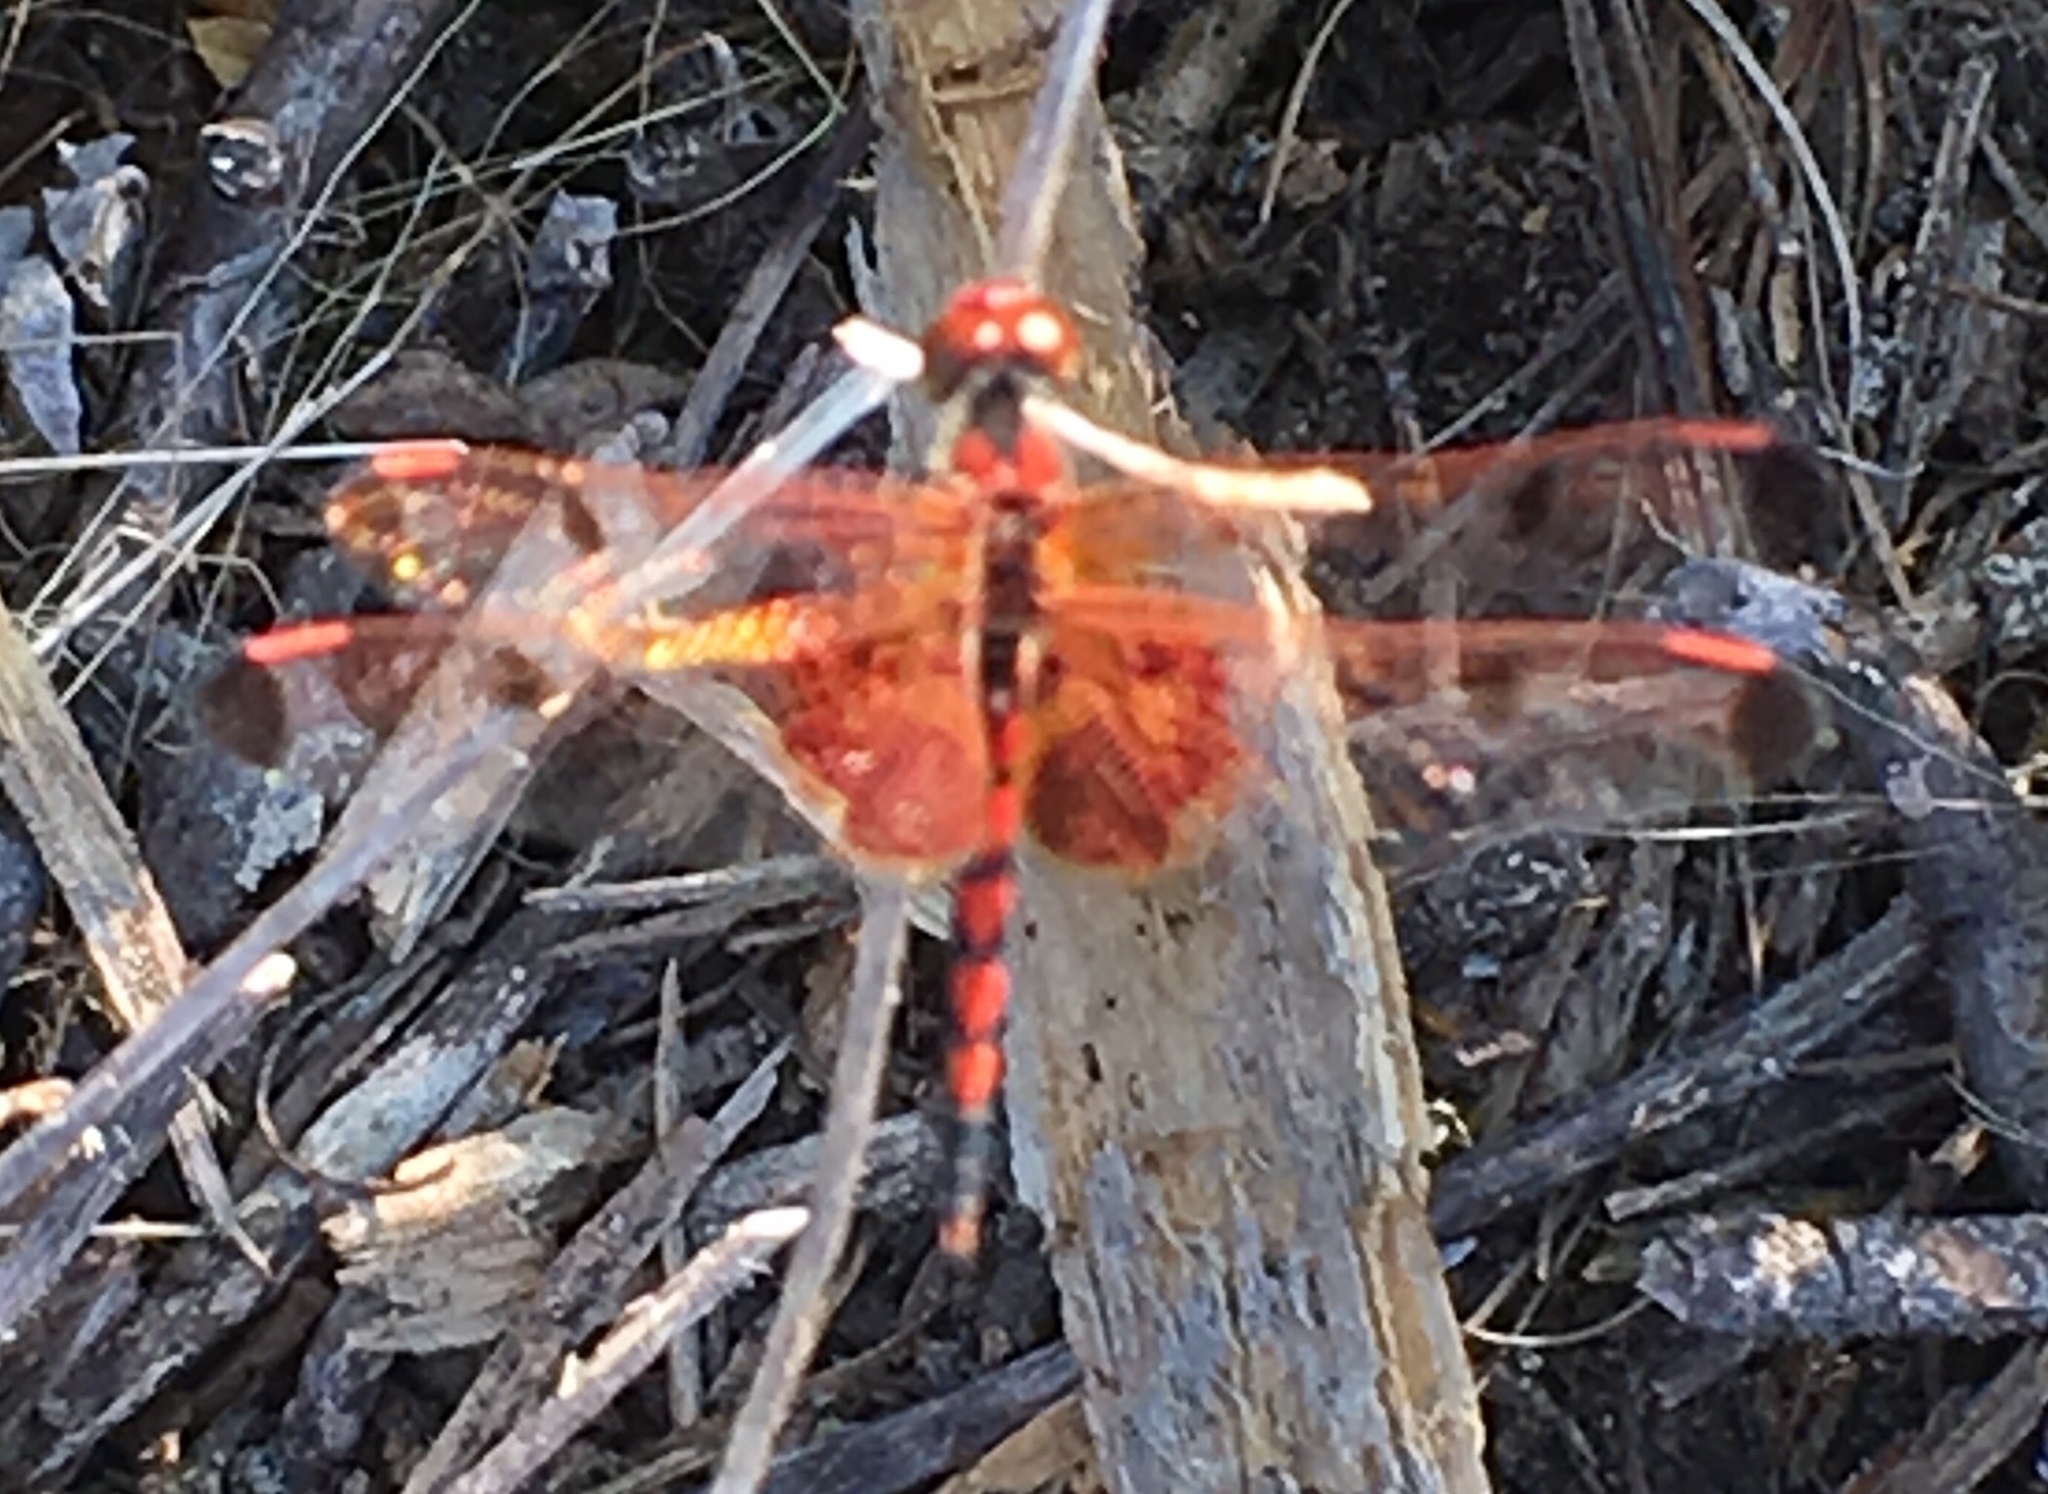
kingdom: Animalia
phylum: Arthropoda
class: Insecta
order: Odonata
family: Libellulidae
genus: Celithemis
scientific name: Celithemis elisa
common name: Calico pennant
